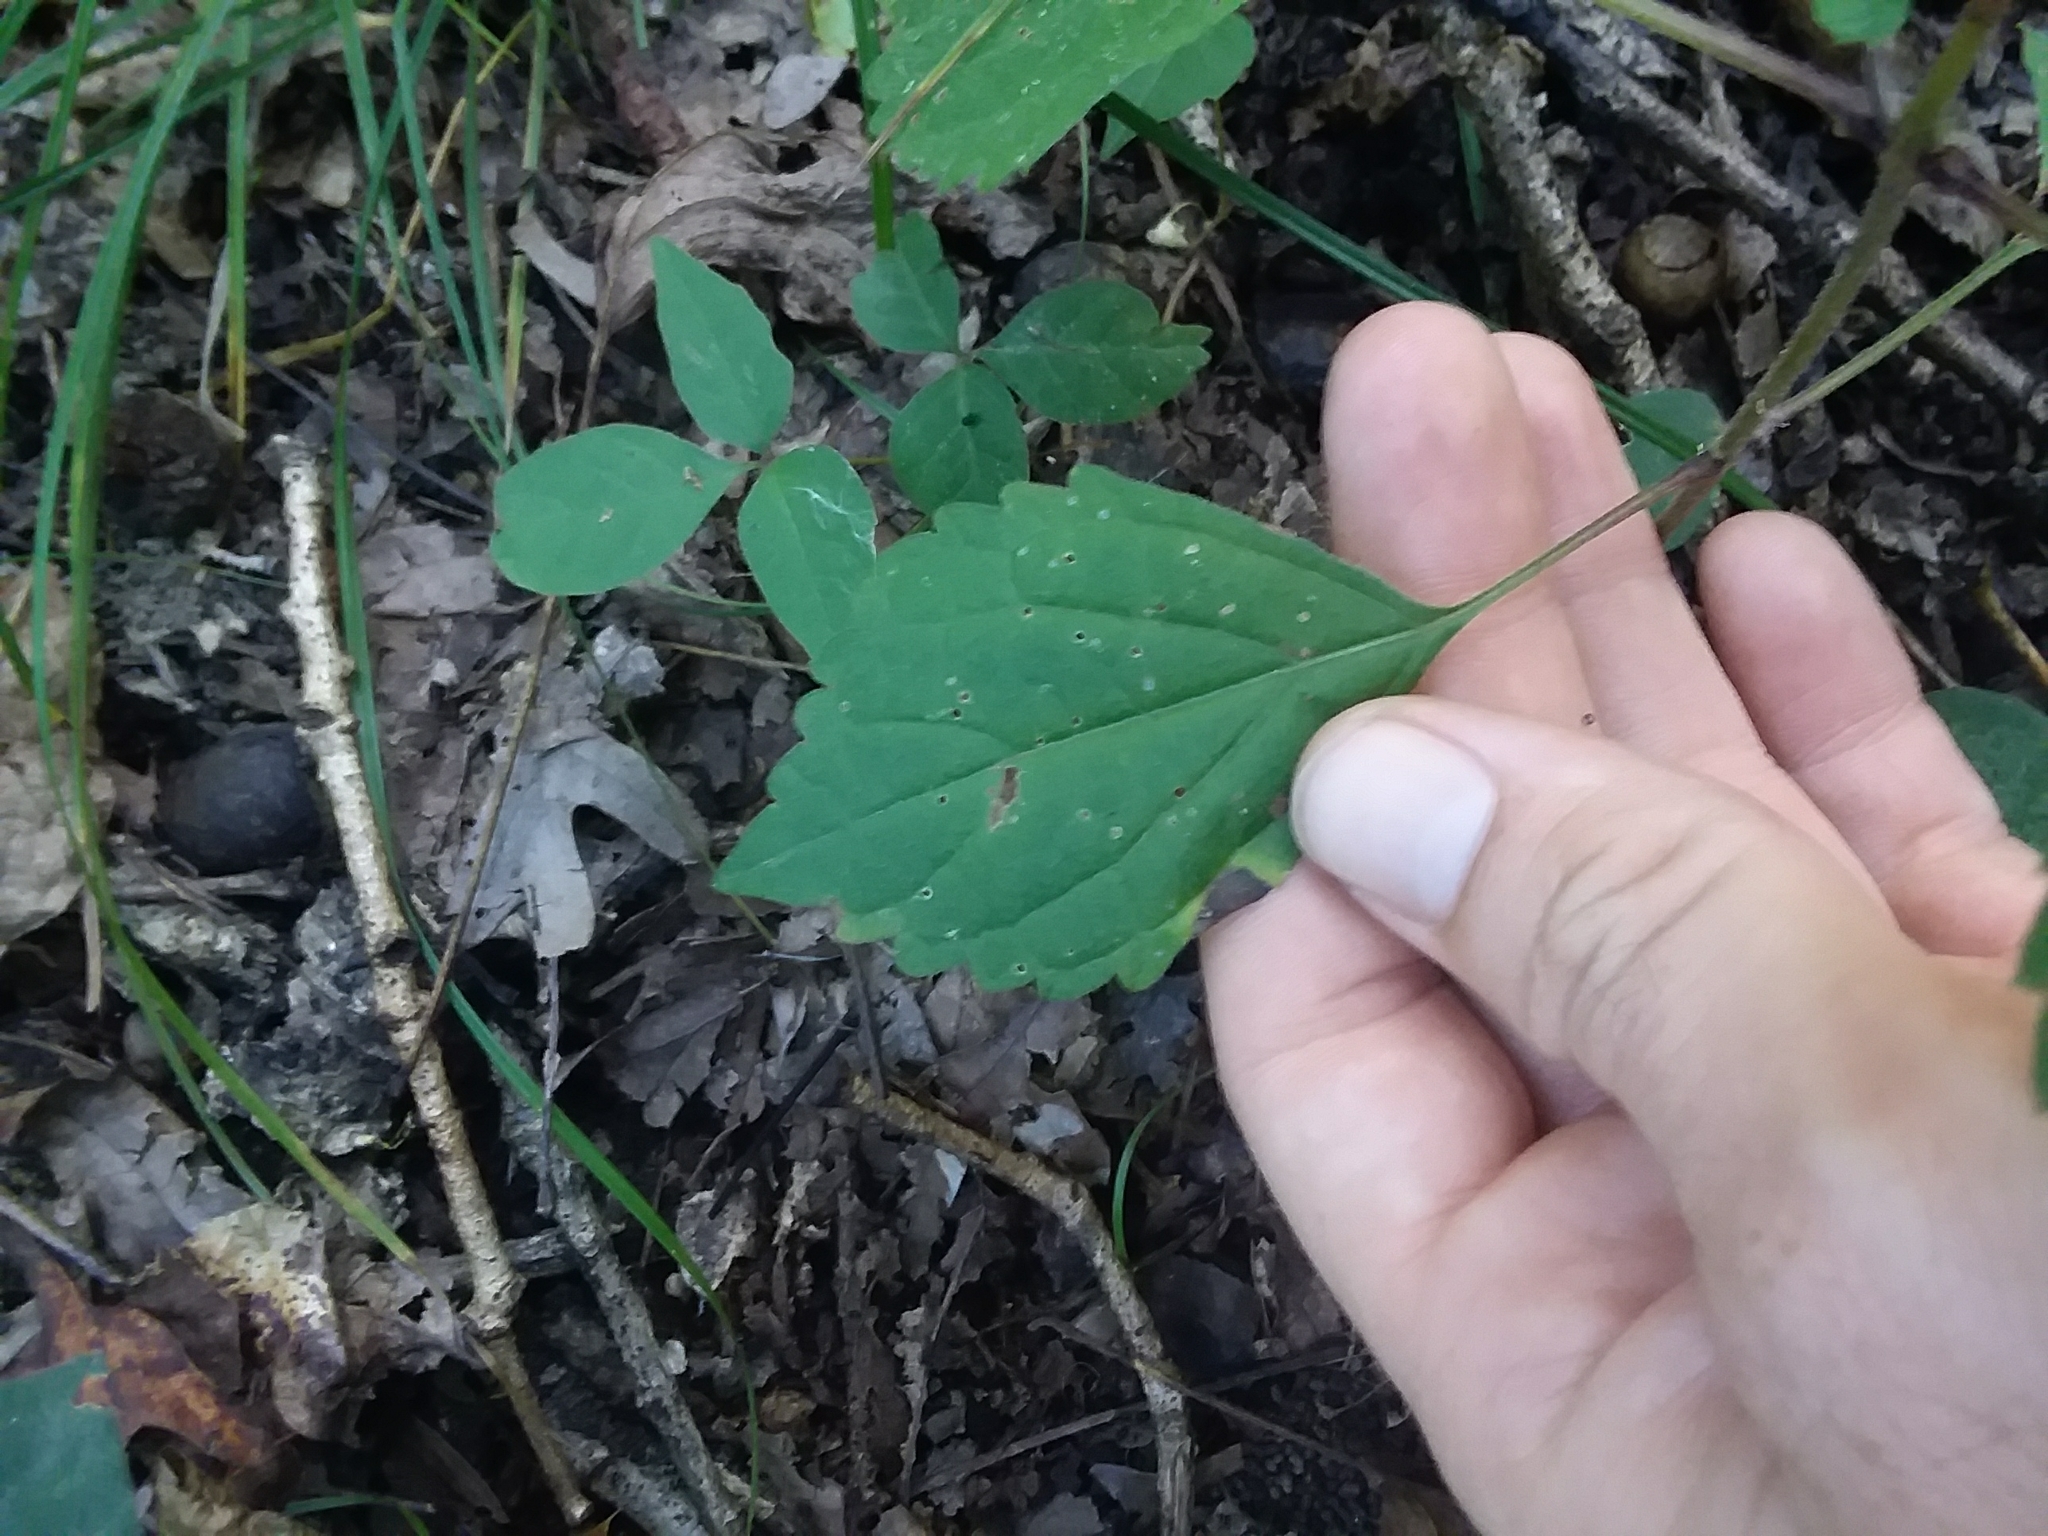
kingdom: Plantae
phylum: Tracheophyta
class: Magnoliopsida
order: Lamiales
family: Lamiaceae
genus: Collinsonia
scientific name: Collinsonia canadensis
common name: Northern horsebalm
